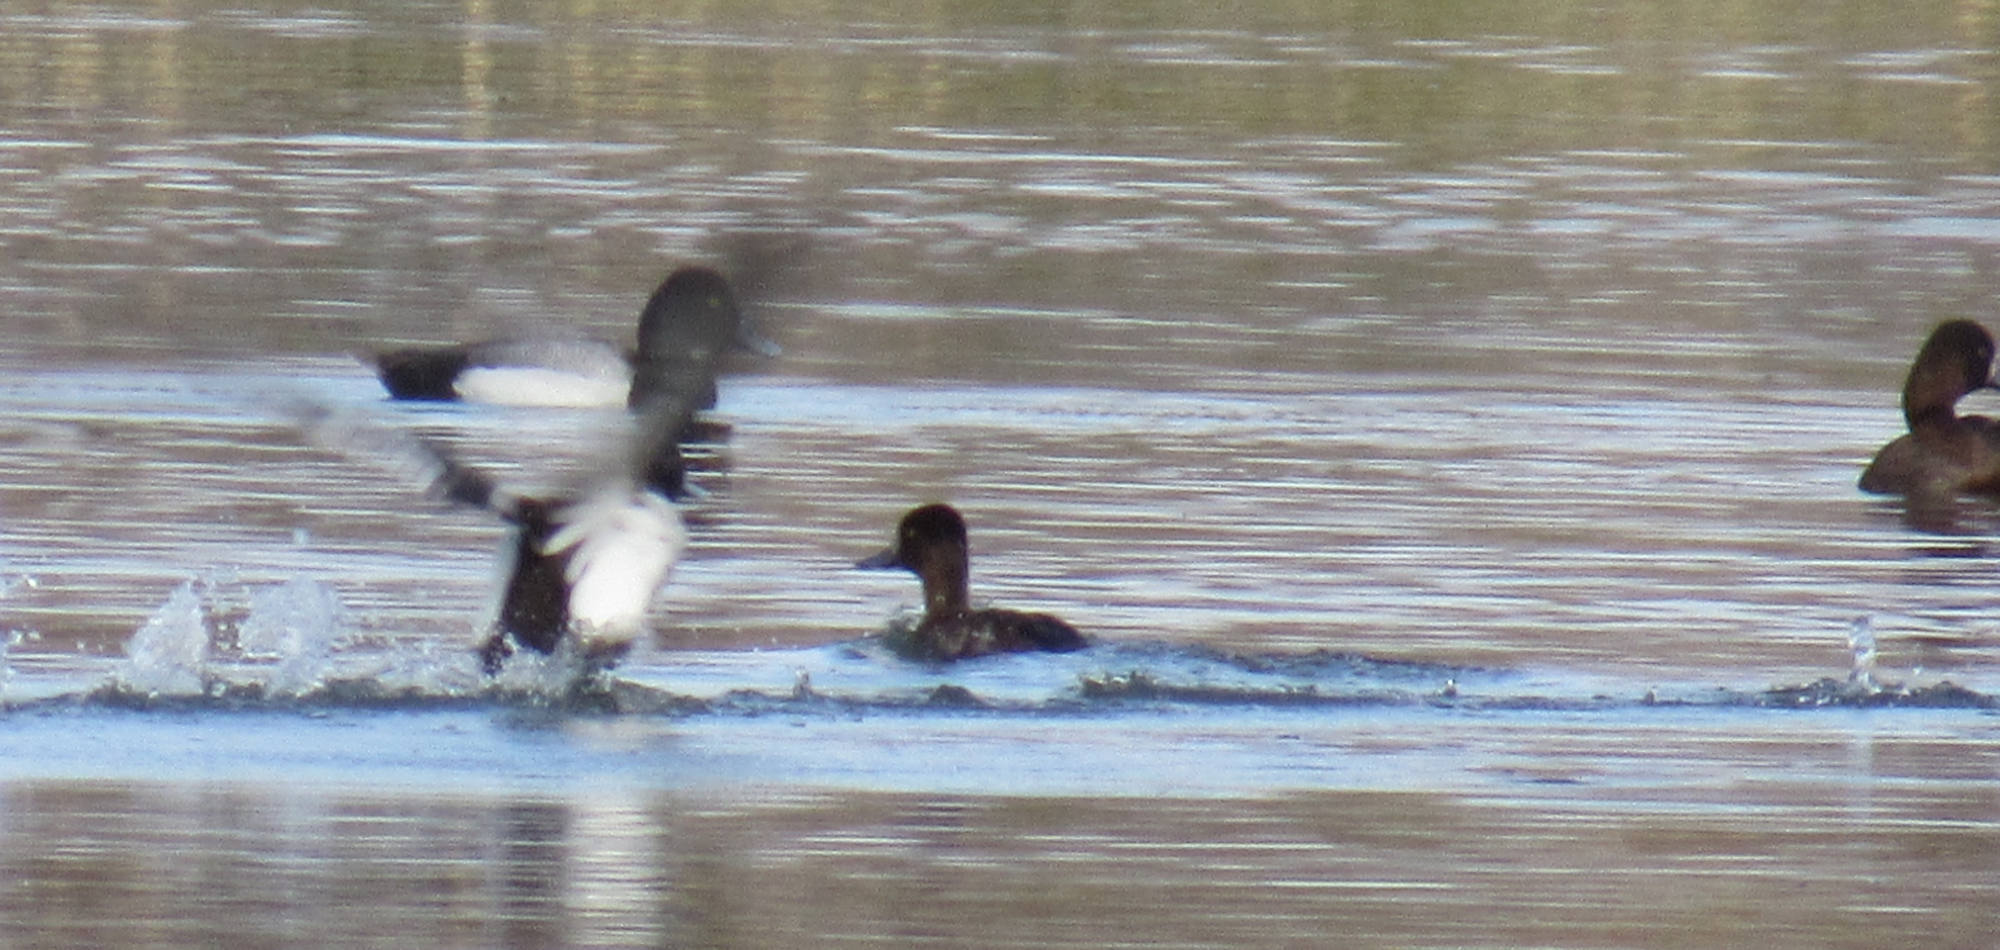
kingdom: Animalia
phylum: Chordata
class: Aves
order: Anseriformes
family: Anatidae
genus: Aythya
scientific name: Aythya affinis
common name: Lesser scaup
